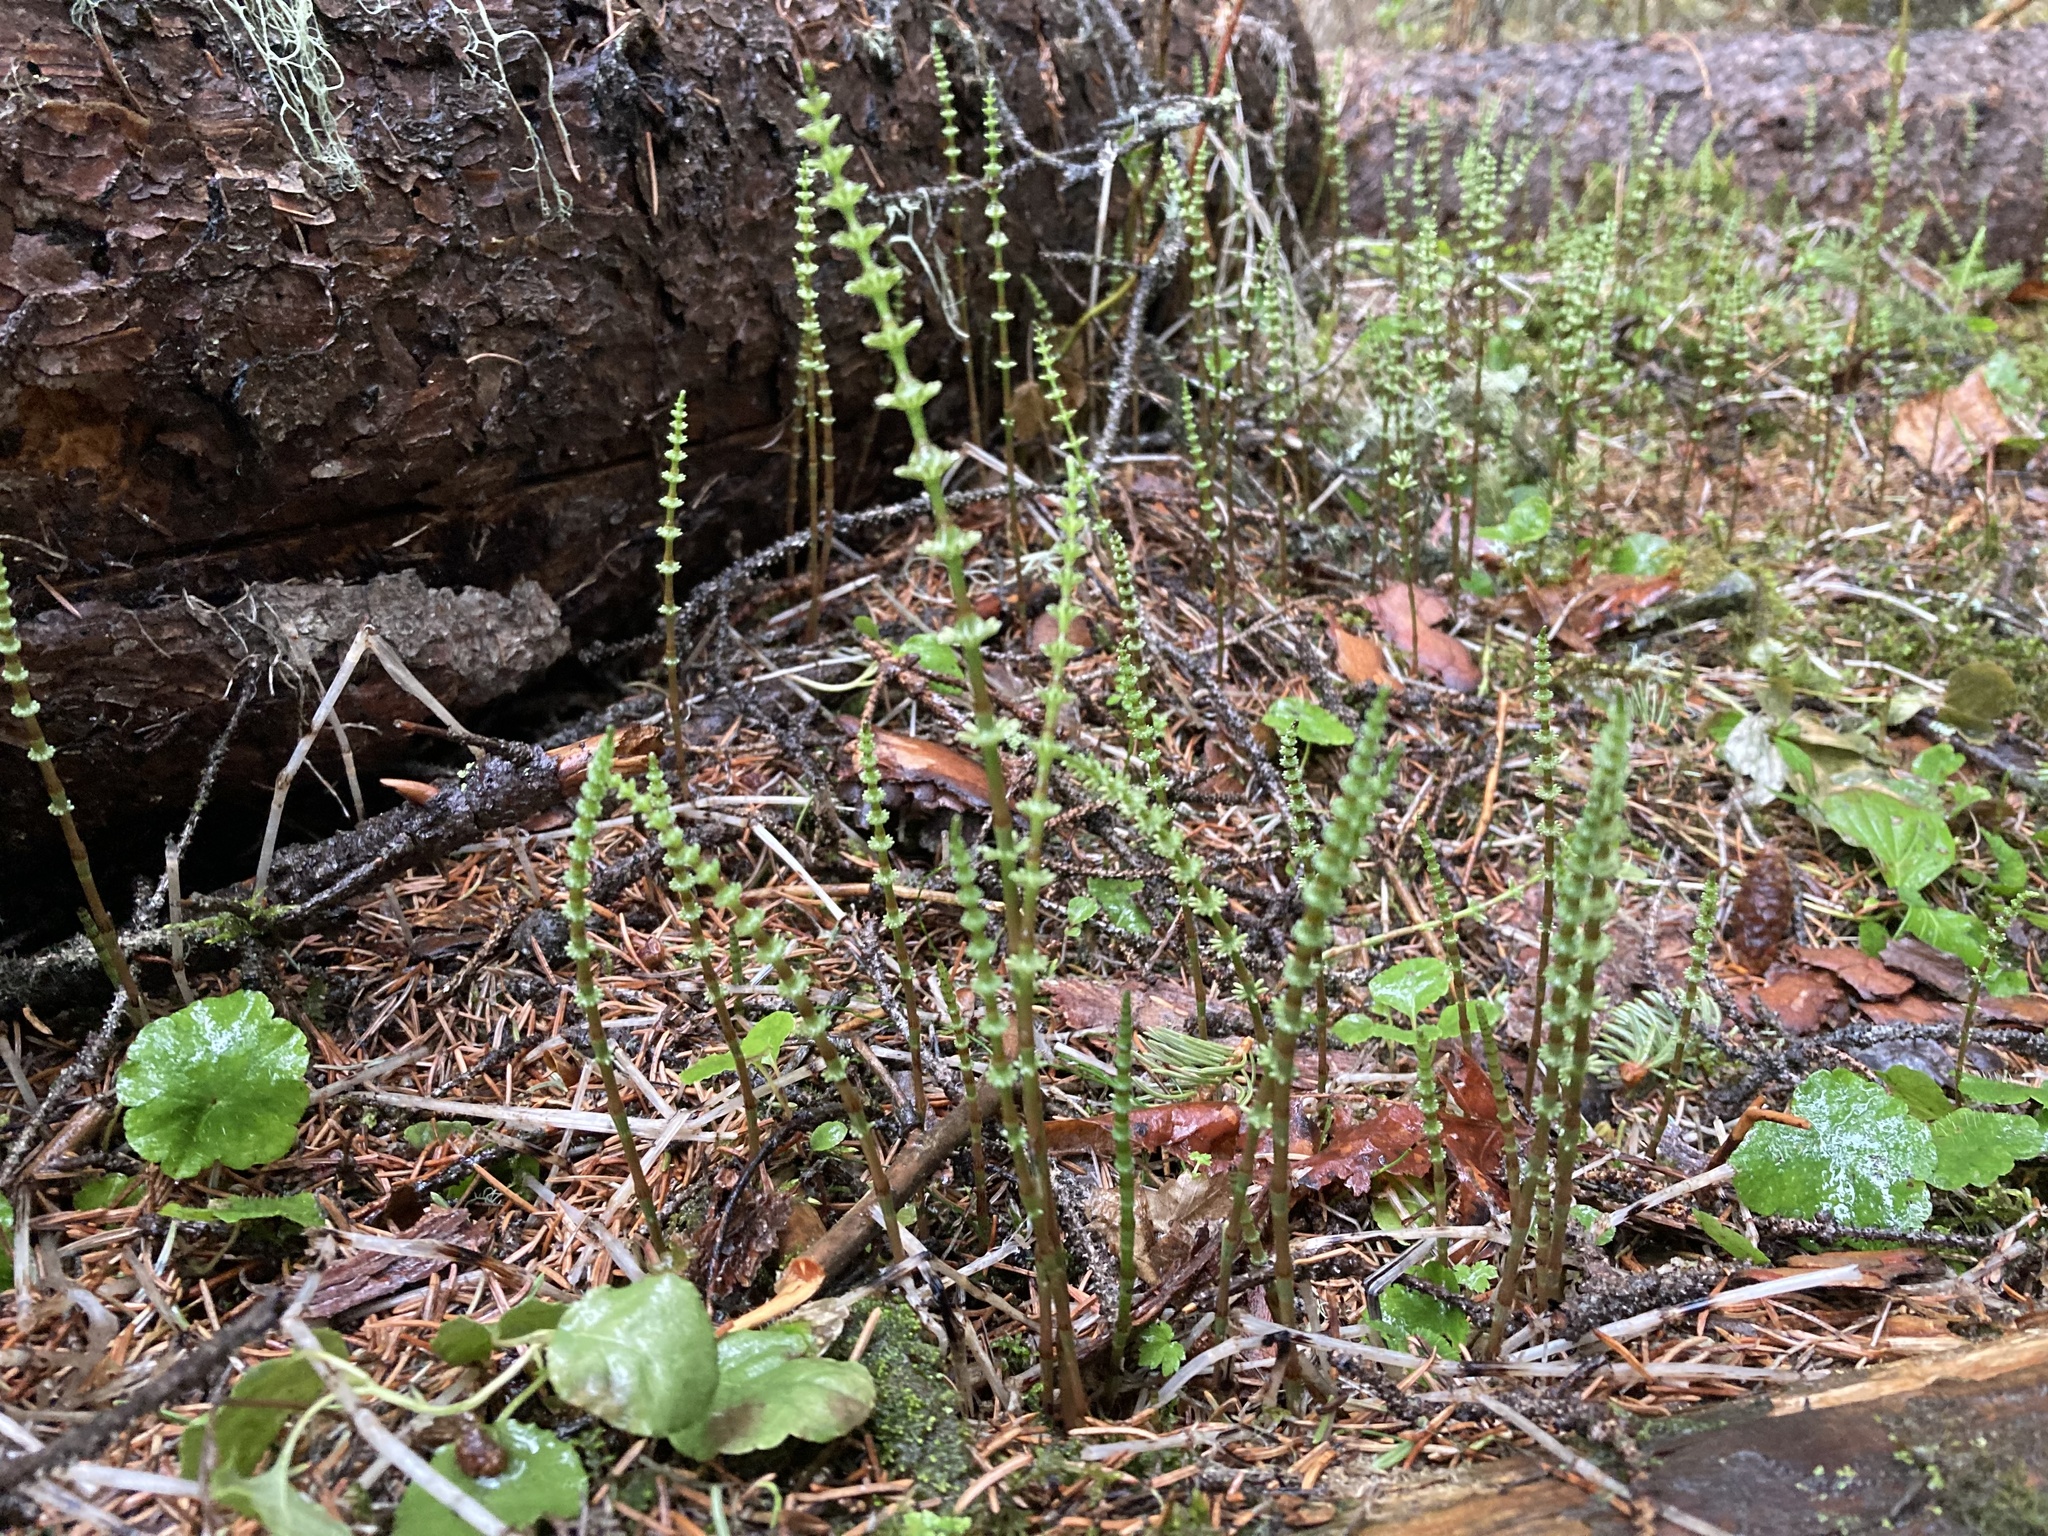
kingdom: Plantae
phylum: Tracheophyta
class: Polypodiopsida
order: Equisetales
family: Equisetaceae
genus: Equisetum
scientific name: Equisetum pratense
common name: Meadow horsetail
